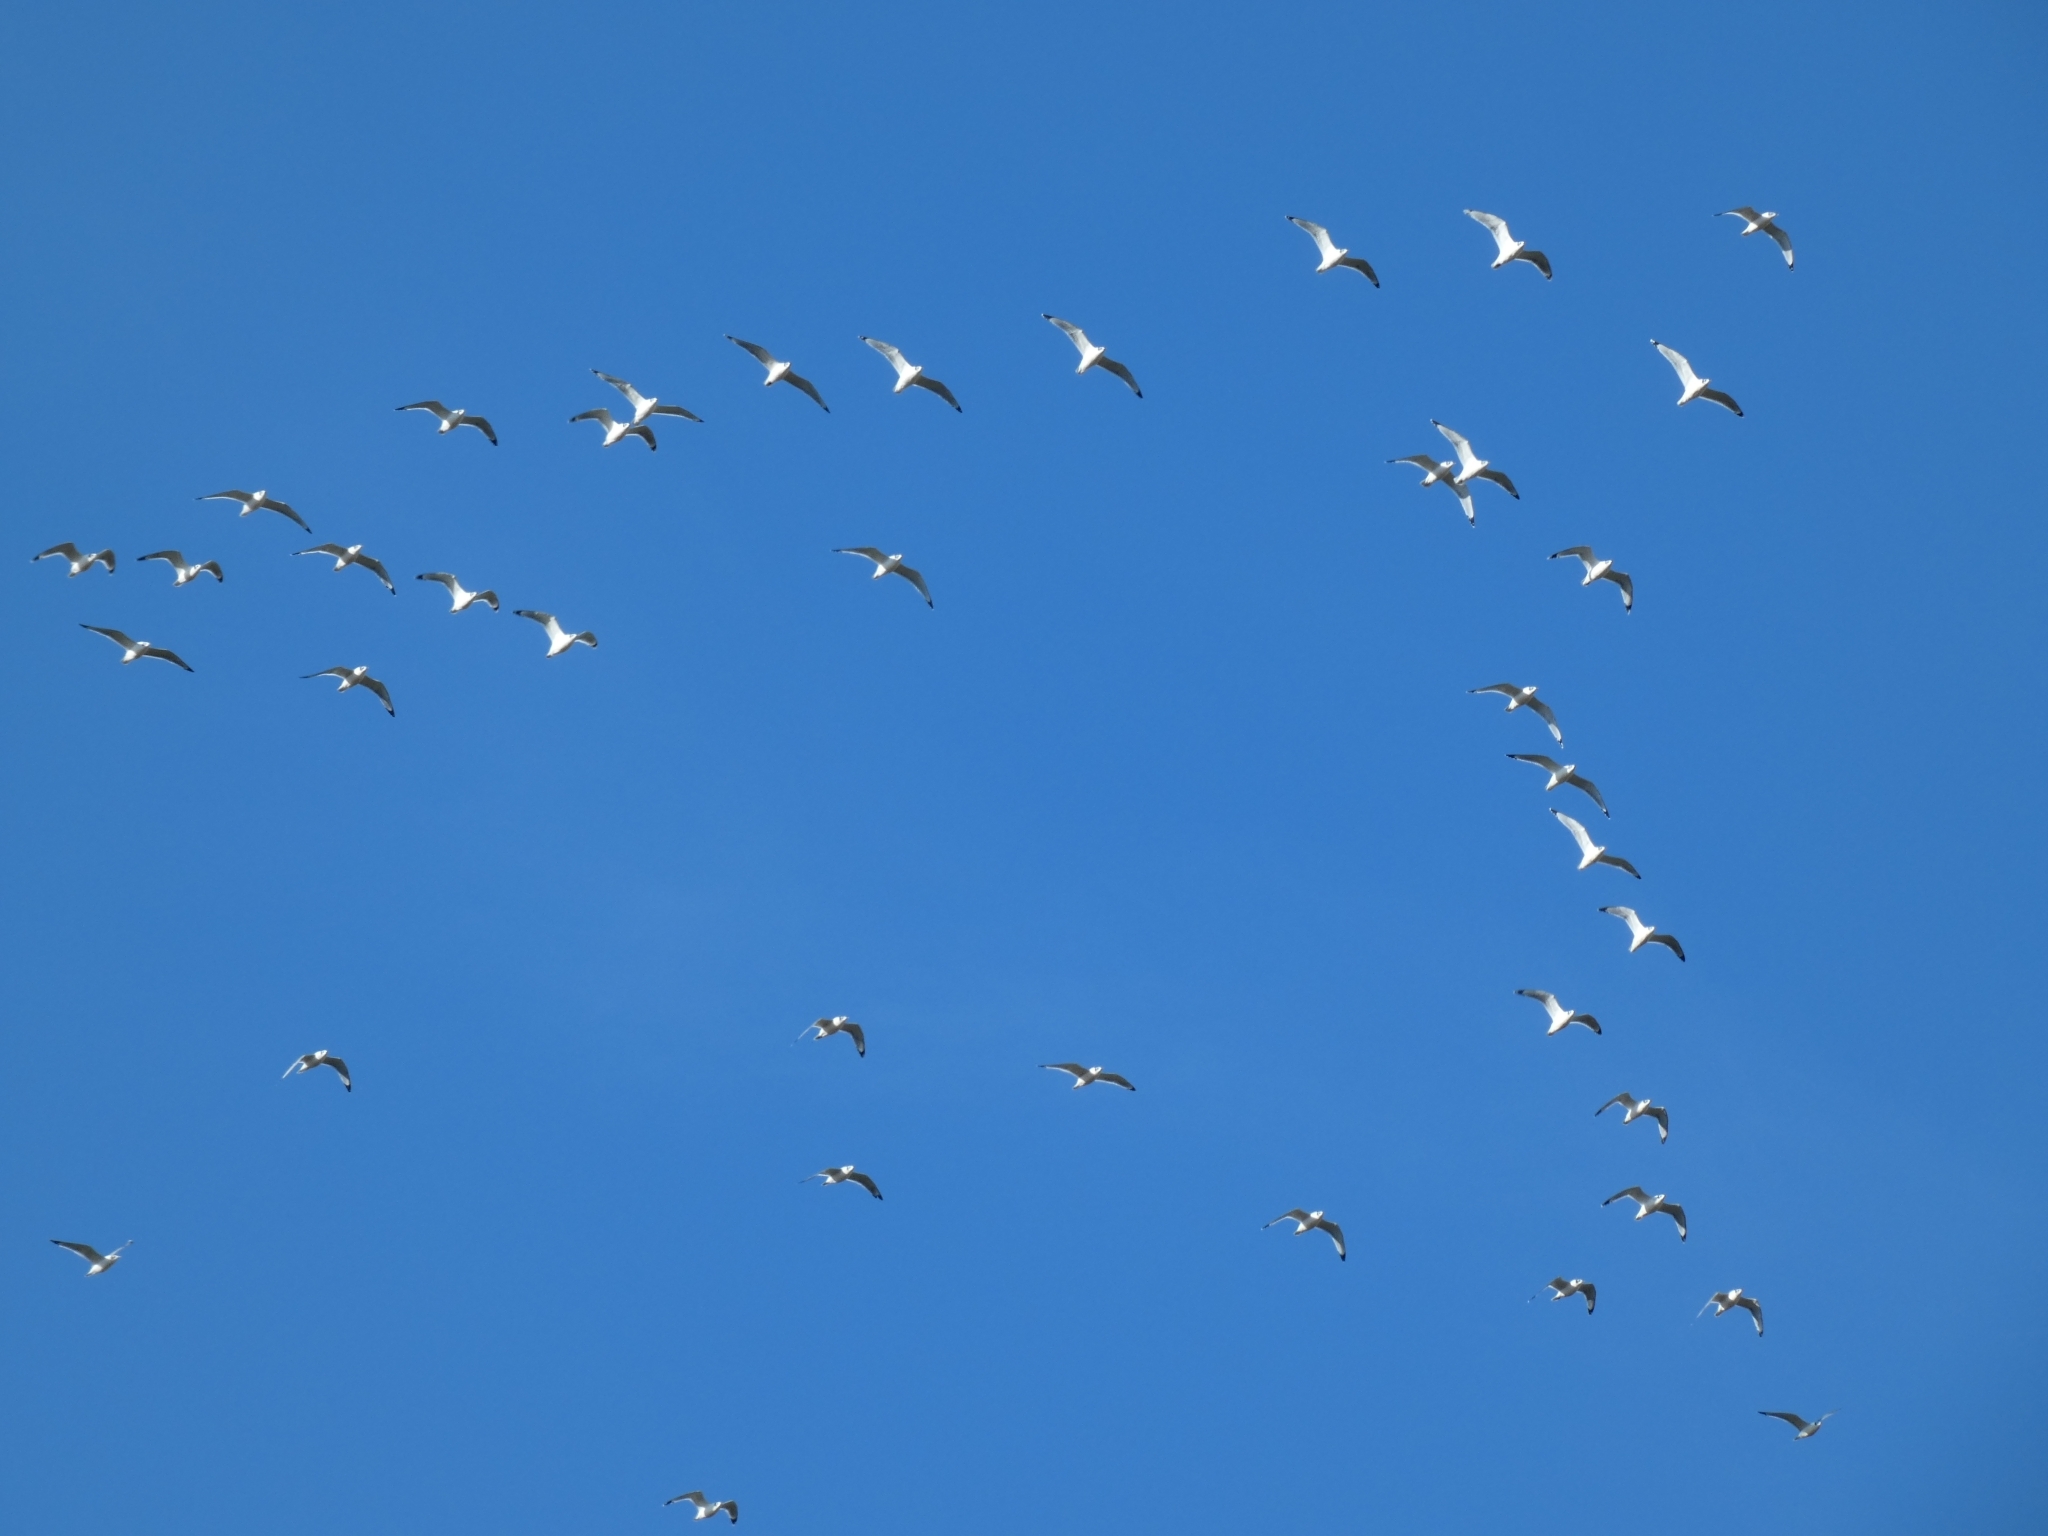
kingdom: Animalia
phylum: Chordata
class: Aves
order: Charadriiformes
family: Laridae
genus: Leucophaeus
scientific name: Leucophaeus pipixcan
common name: Franklin's gull
